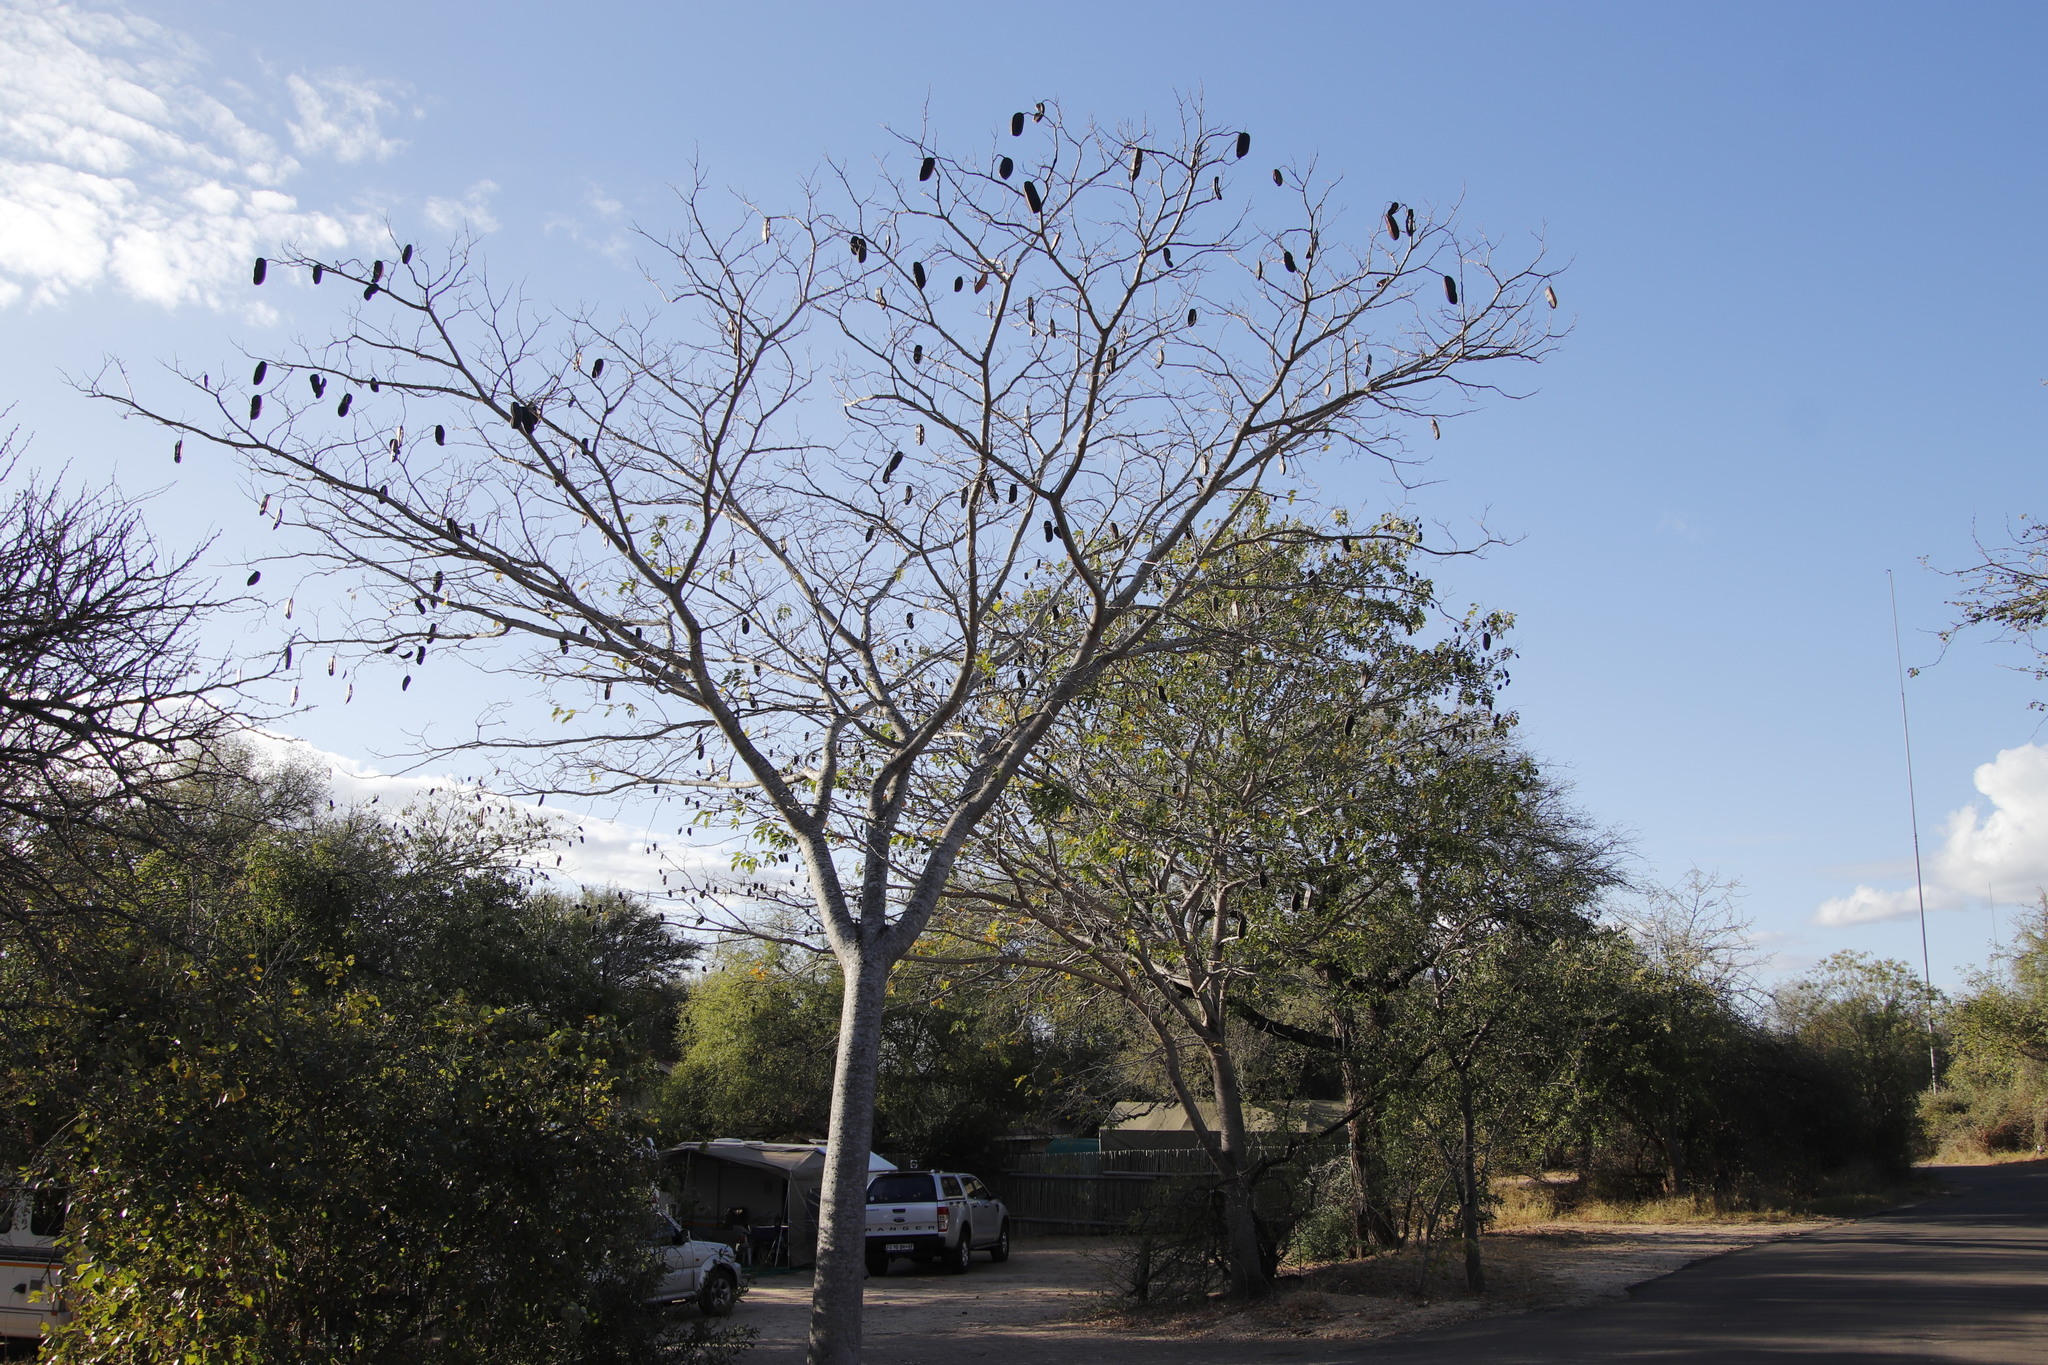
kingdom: Plantae
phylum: Tracheophyta
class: Magnoliopsida
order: Fabales
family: Fabaceae
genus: Afzelia
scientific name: Afzelia quanzensis
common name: Pod mahogany
